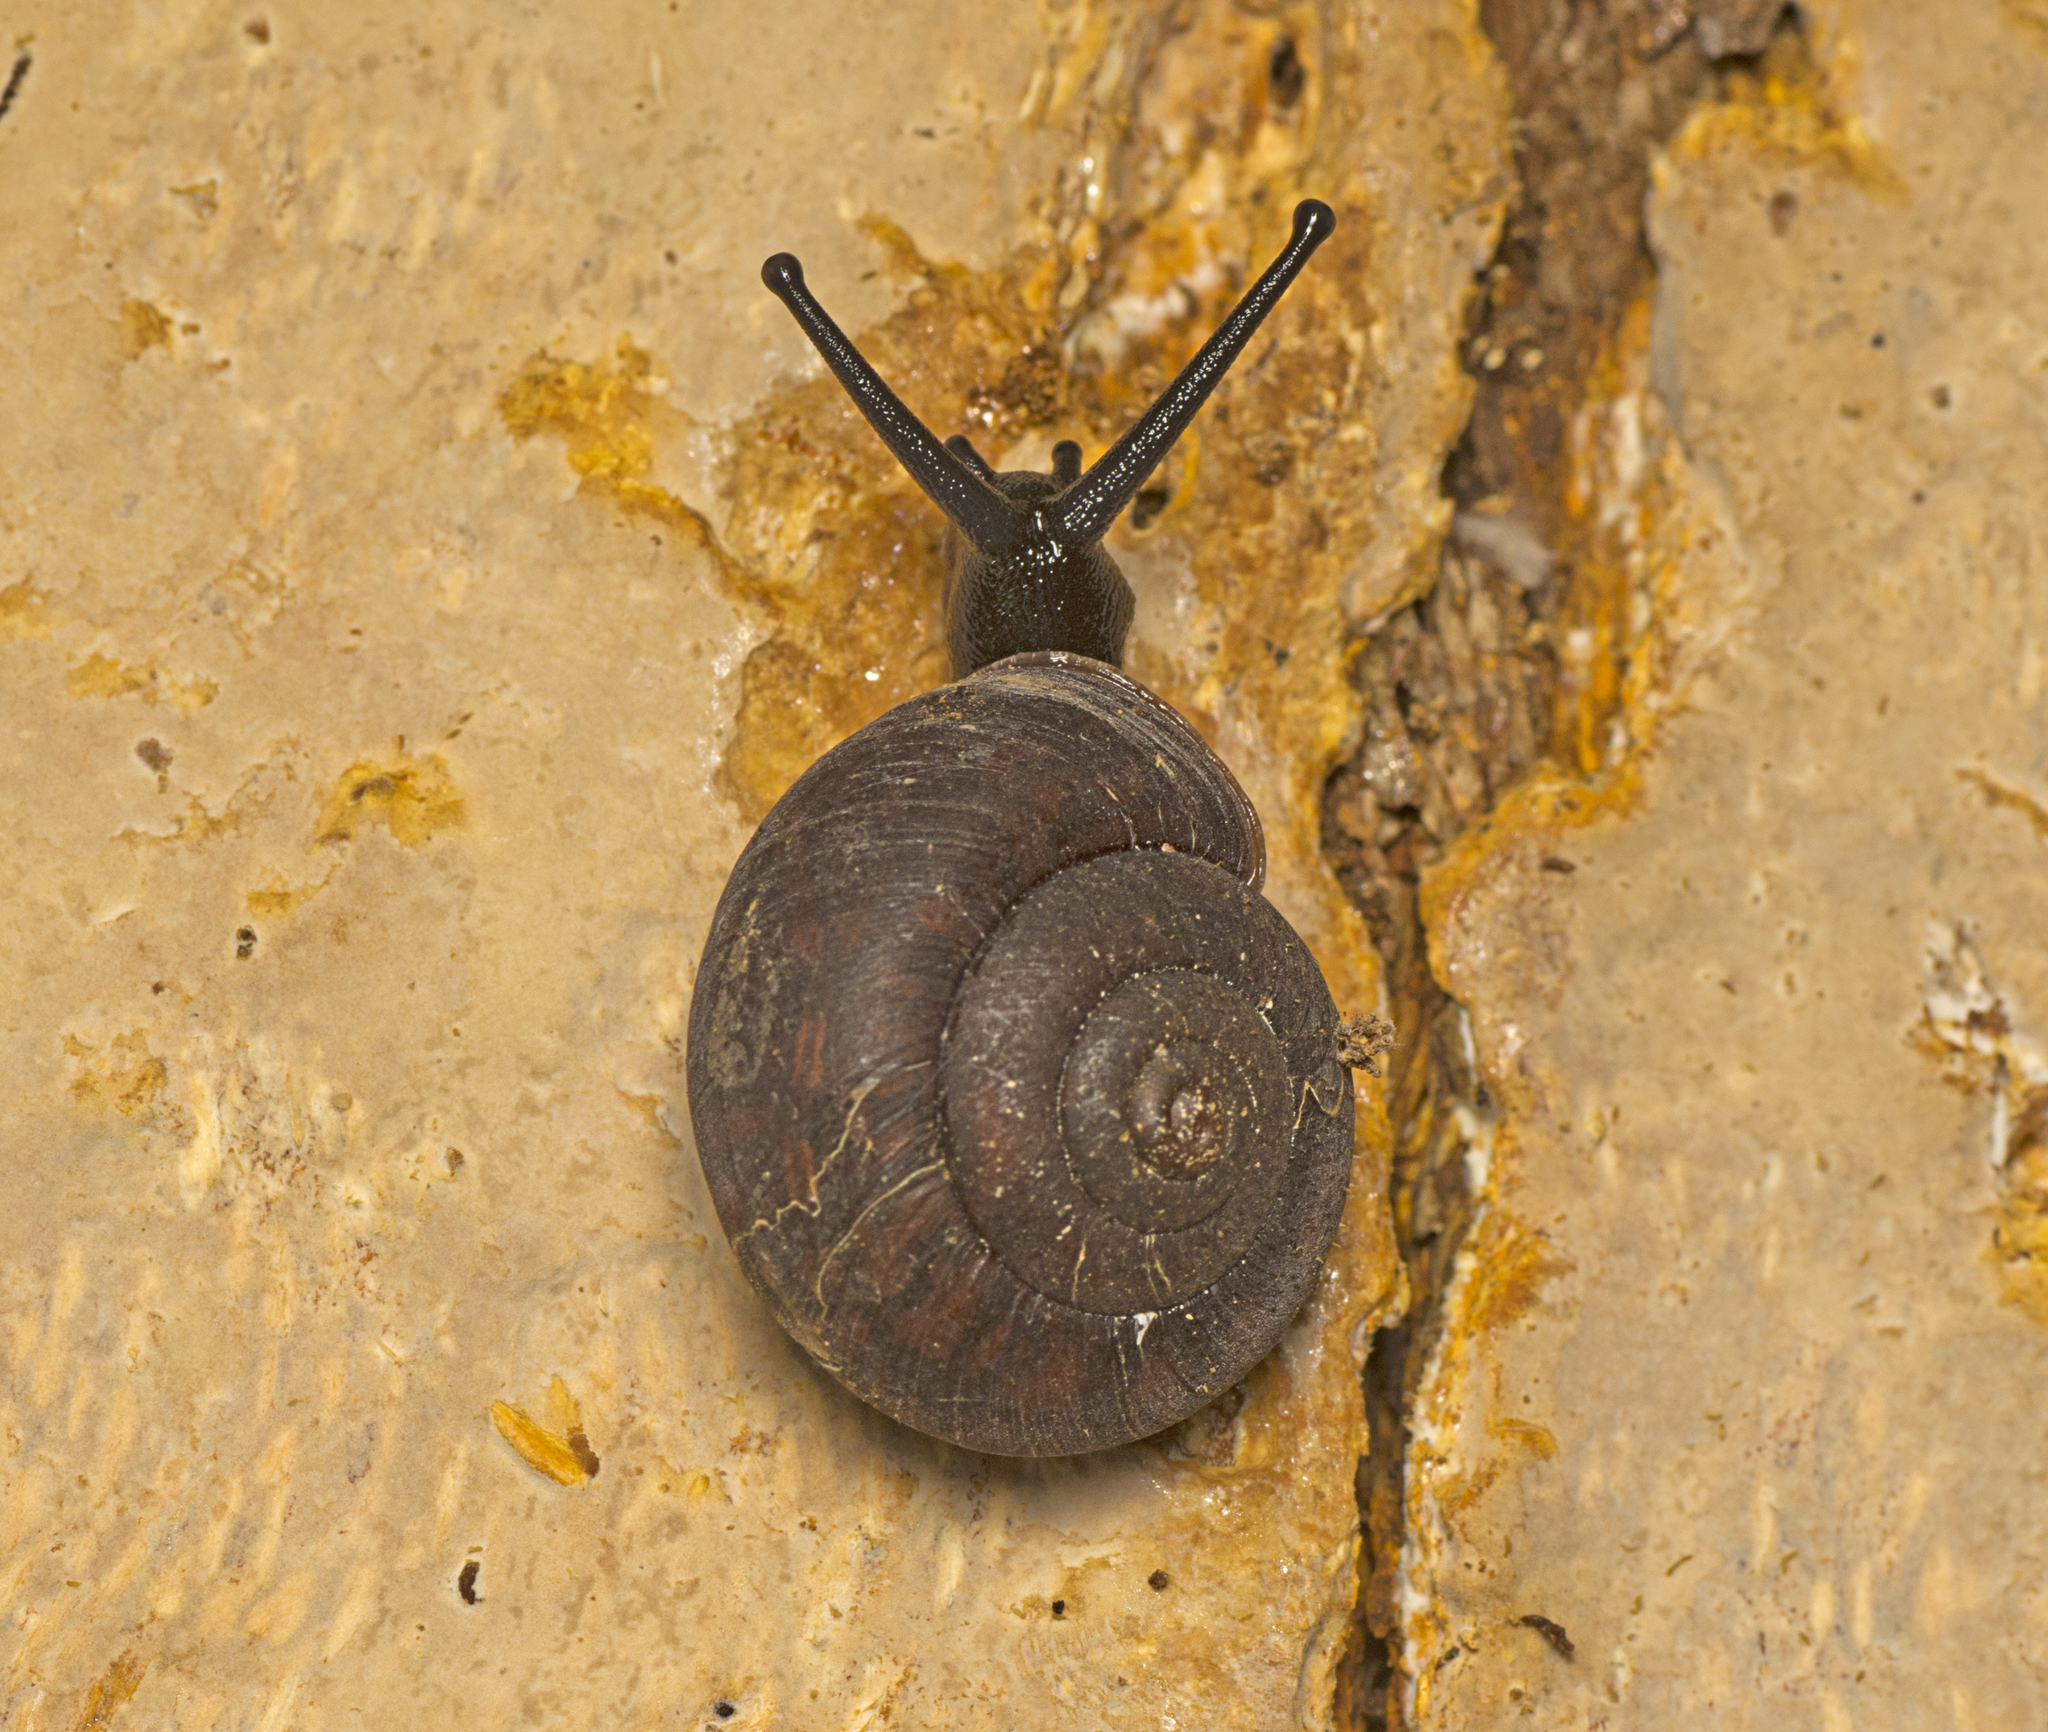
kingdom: Animalia
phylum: Mollusca
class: Gastropoda
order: Stylommatophora
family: Camaenidae
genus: Ramogenia
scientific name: Ramogenia challengeri
